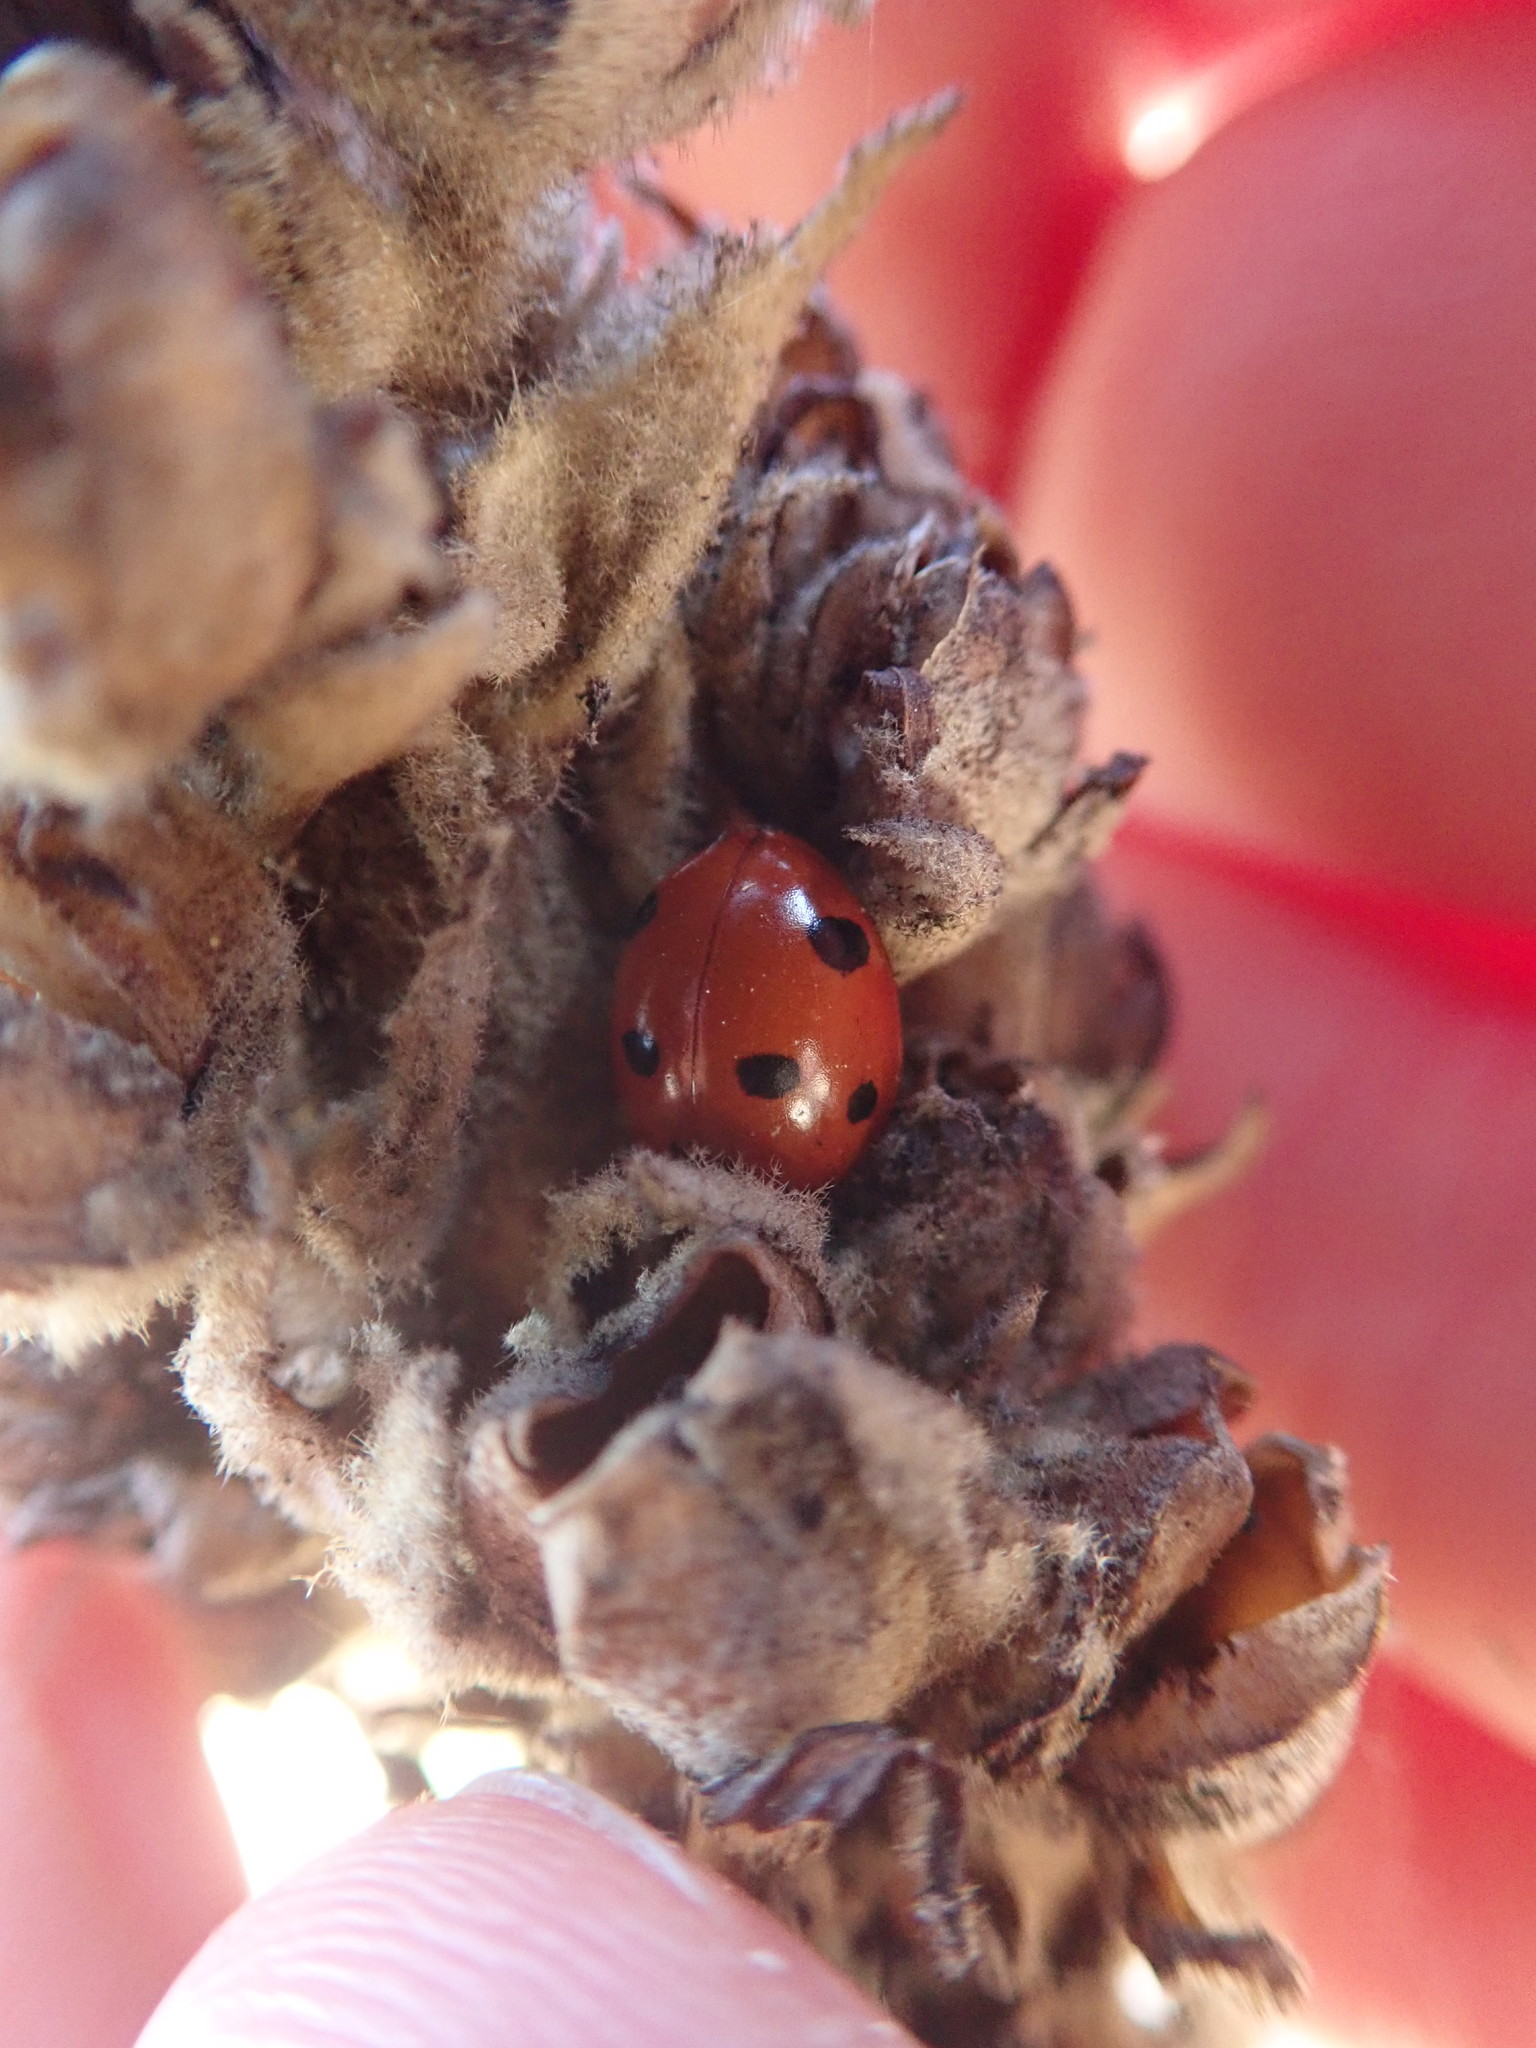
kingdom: Animalia
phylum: Arthropoda
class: Insecta
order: Coleoptera
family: Coccinellidae
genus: Coccinella
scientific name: Coccinella septempunctata
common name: Sevenspotted lady beetle
